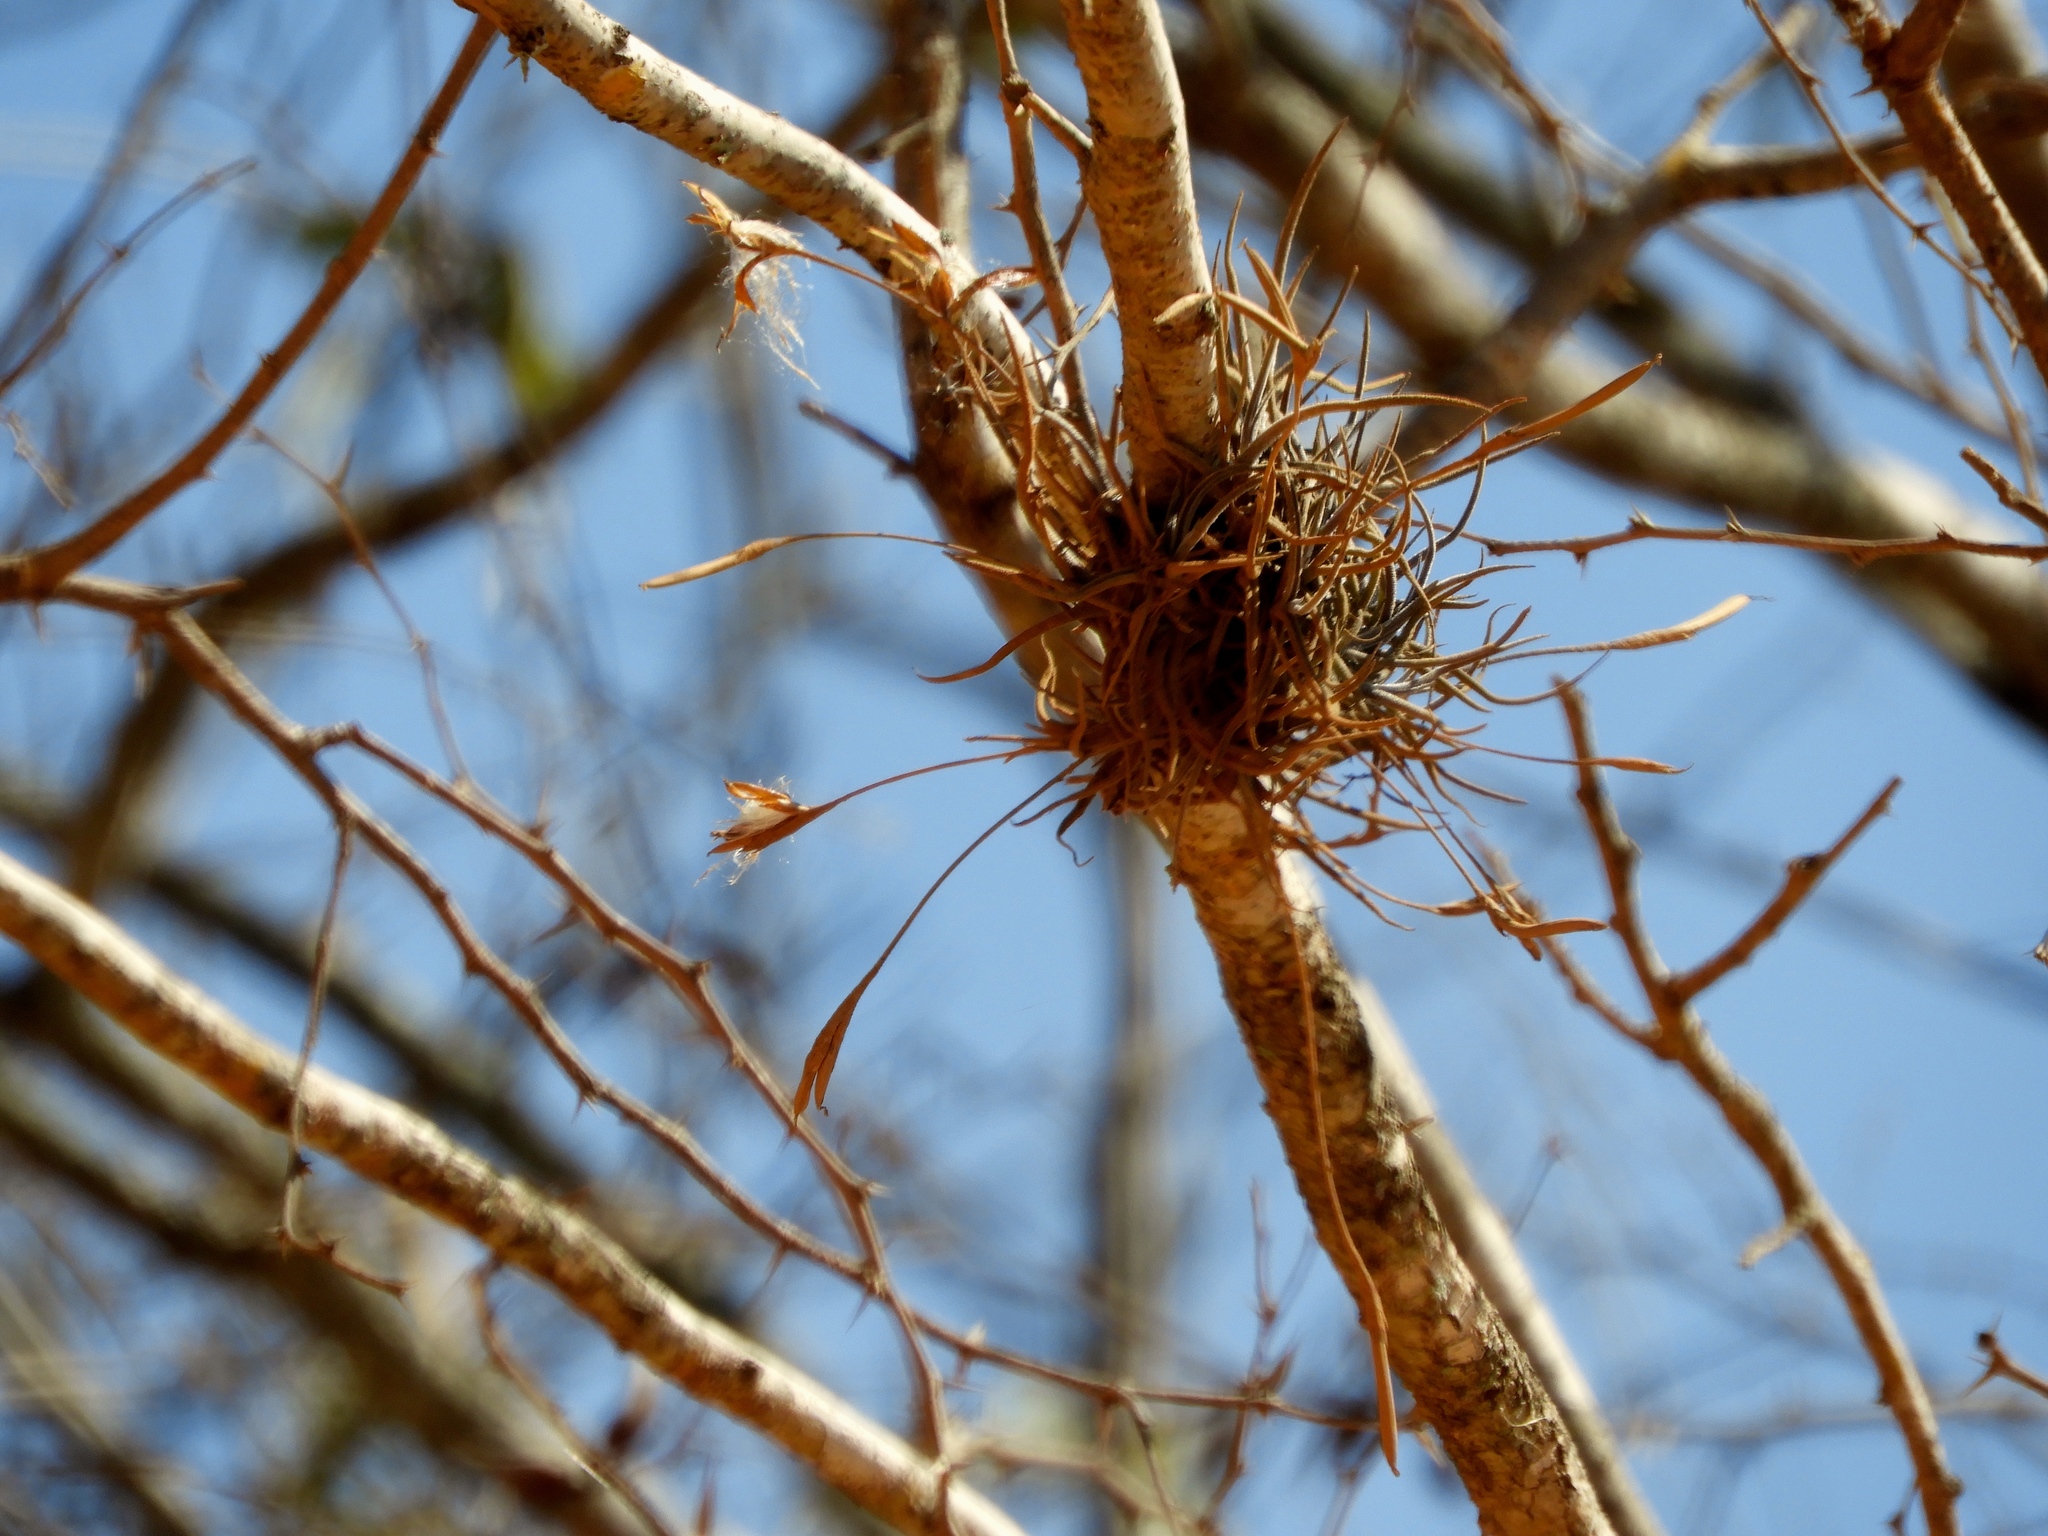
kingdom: Plantae
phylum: Tracheophyta
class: Liliopsida
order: Poales
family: Bromeliaceae
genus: Tillandsia
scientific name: Tillandsia recurvata
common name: Small ballmoss
